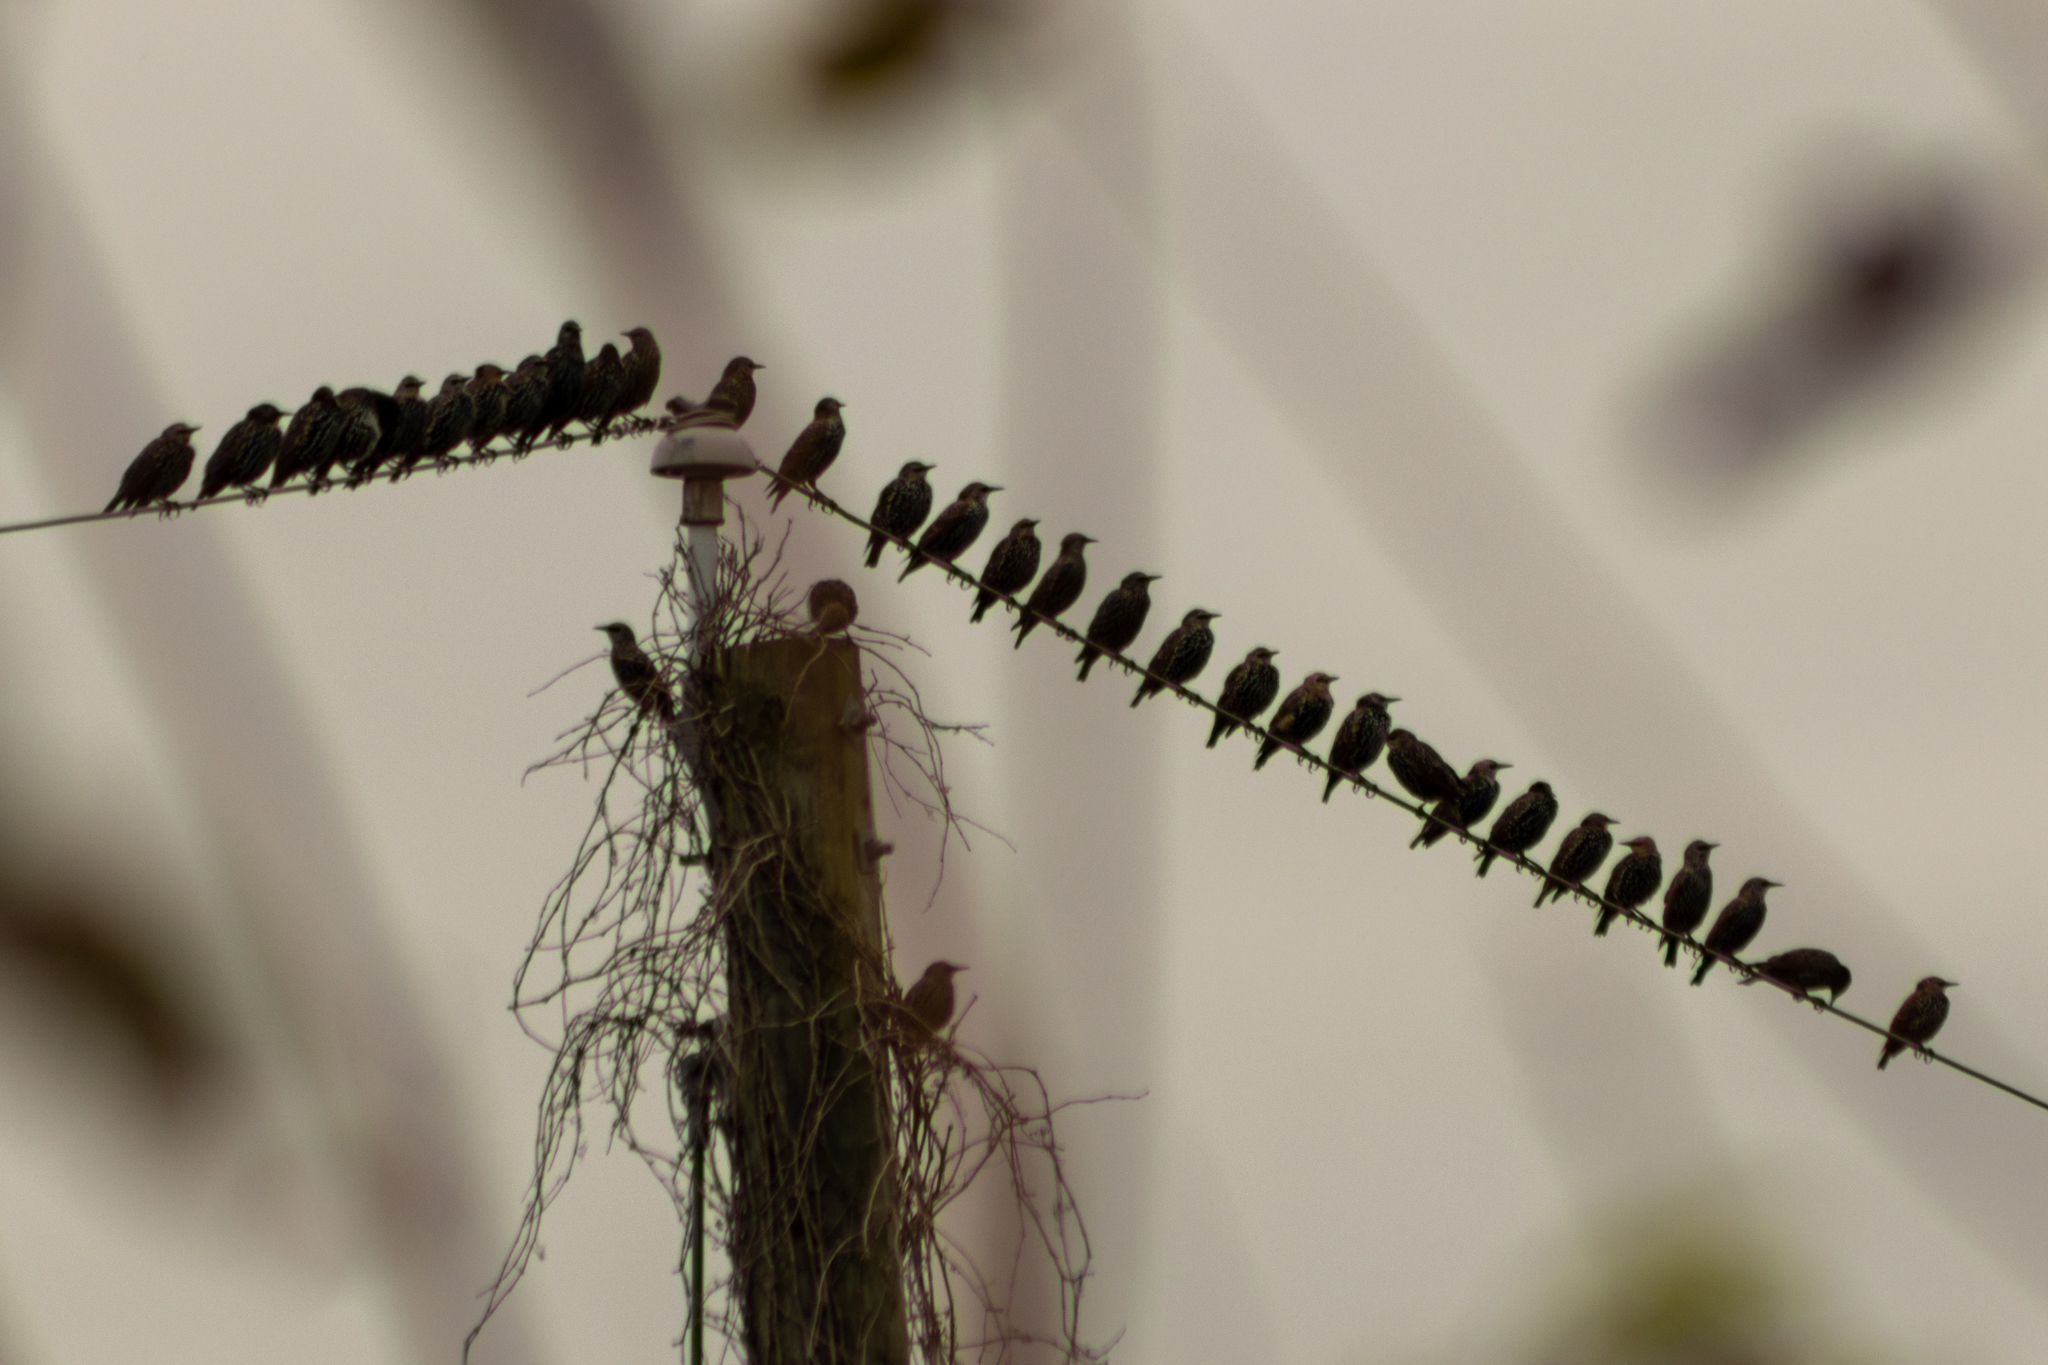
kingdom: Animalia
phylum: Chordata
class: Aves
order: Passeriformes
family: Sturnidae
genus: Sturnus
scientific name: Sturnus vulgaris
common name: Common starling
